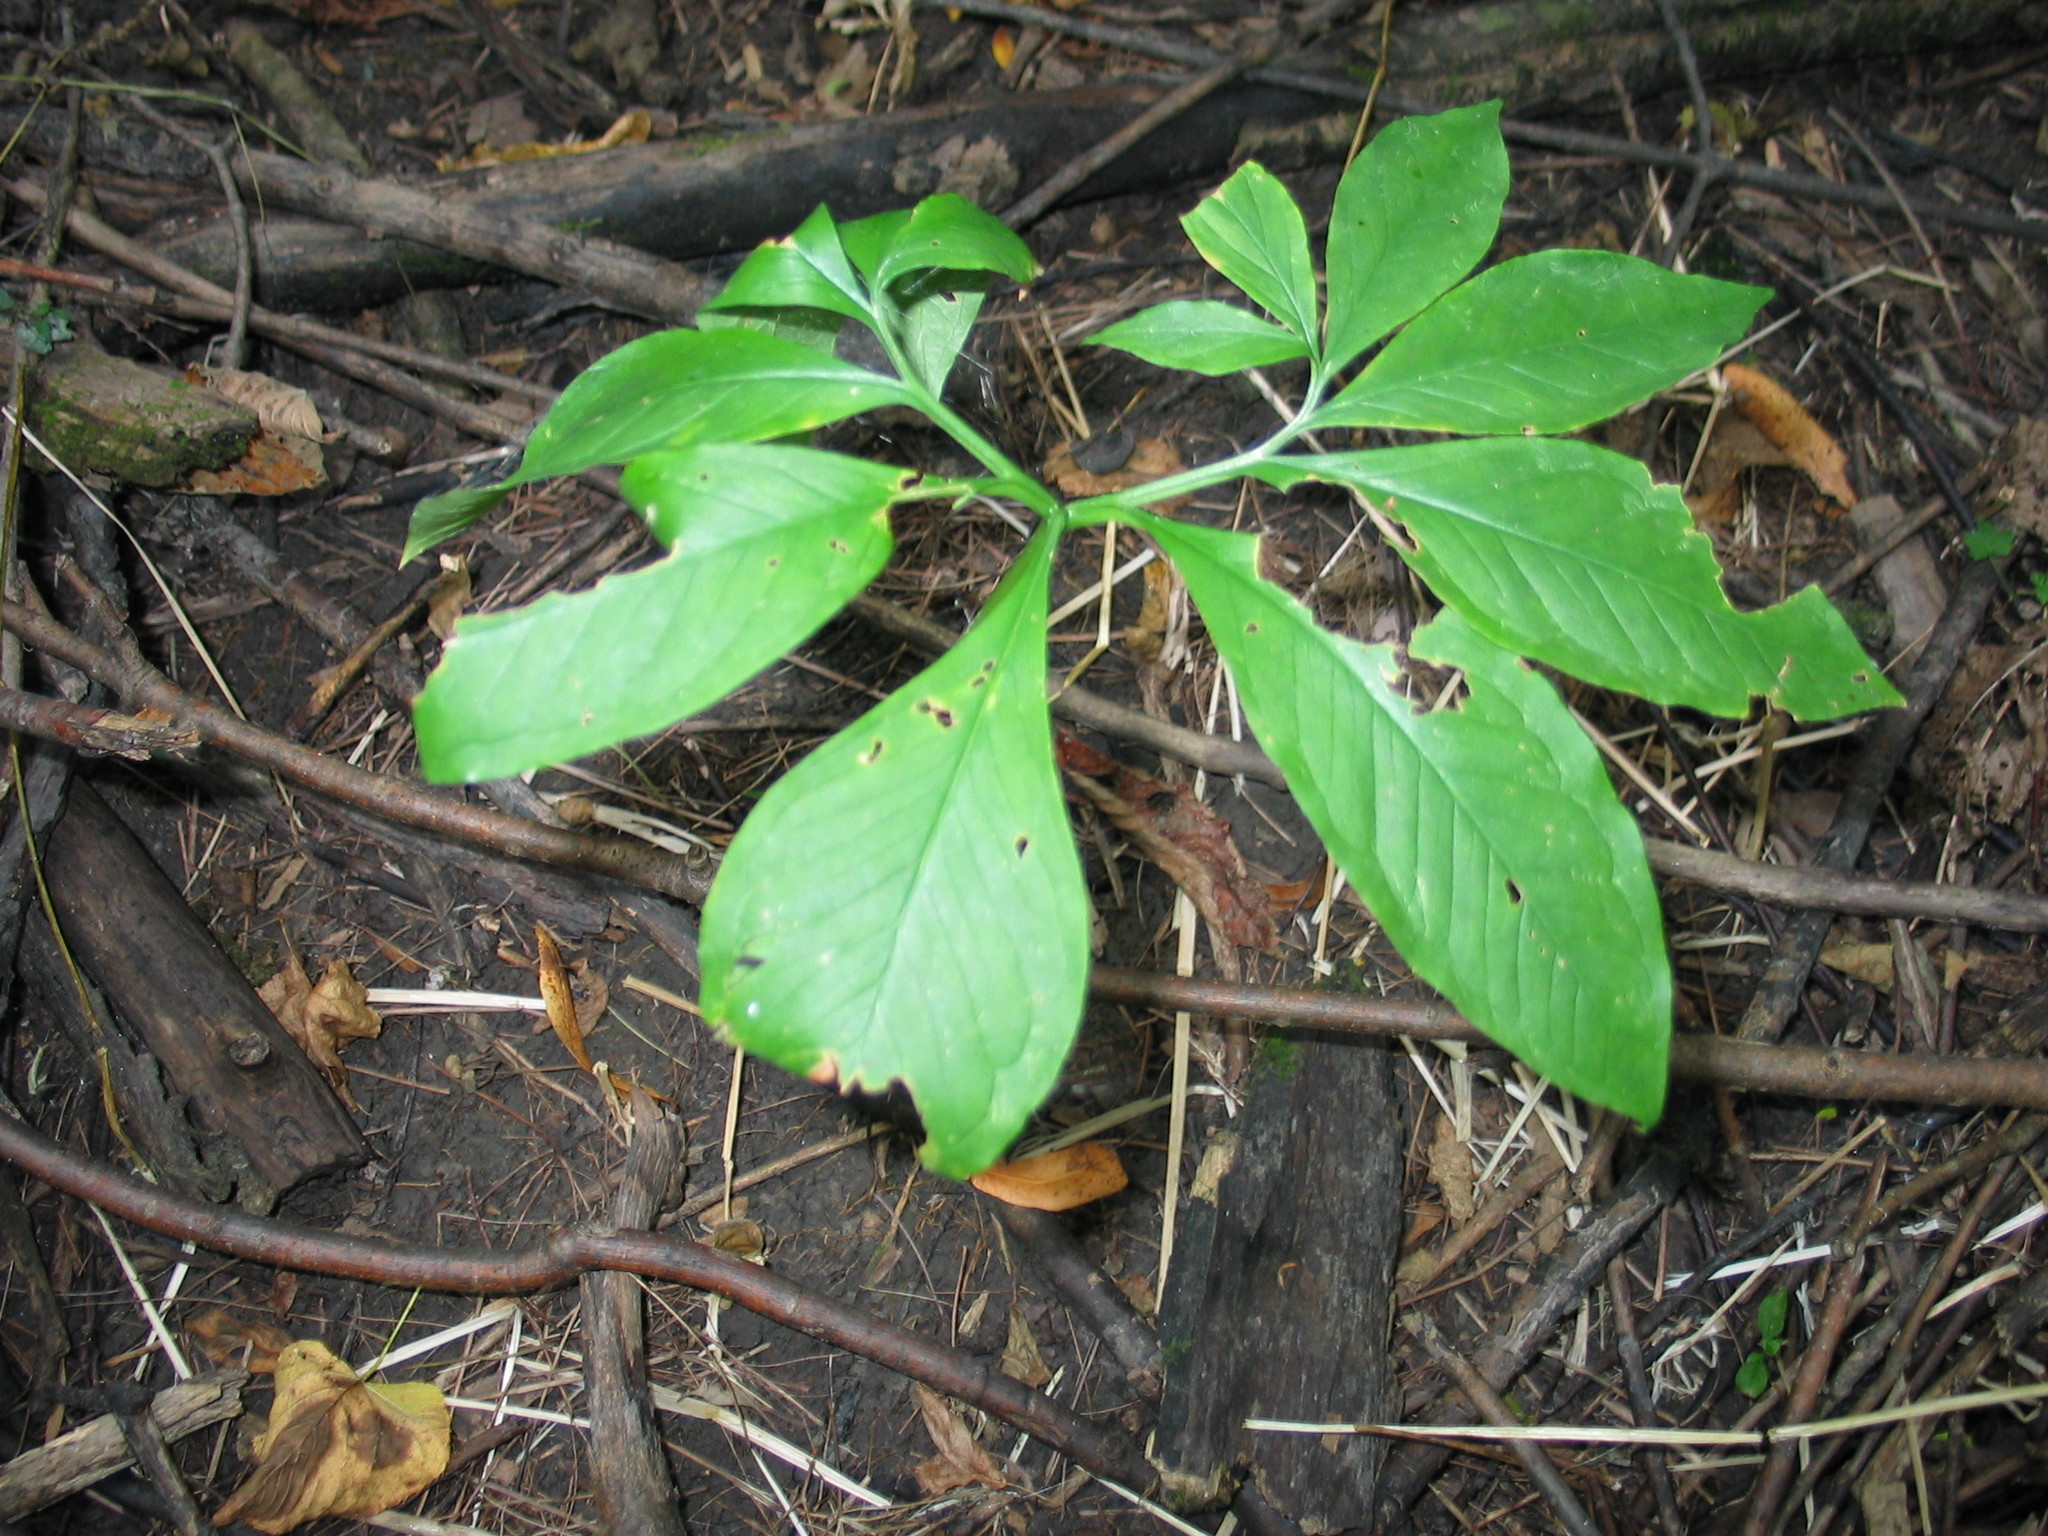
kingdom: Plantae
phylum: Tracheophyta
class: Liliopsida
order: Alismatales
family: Araceae
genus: Arisaema
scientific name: Arisaema dracontium
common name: Dragon-arum
